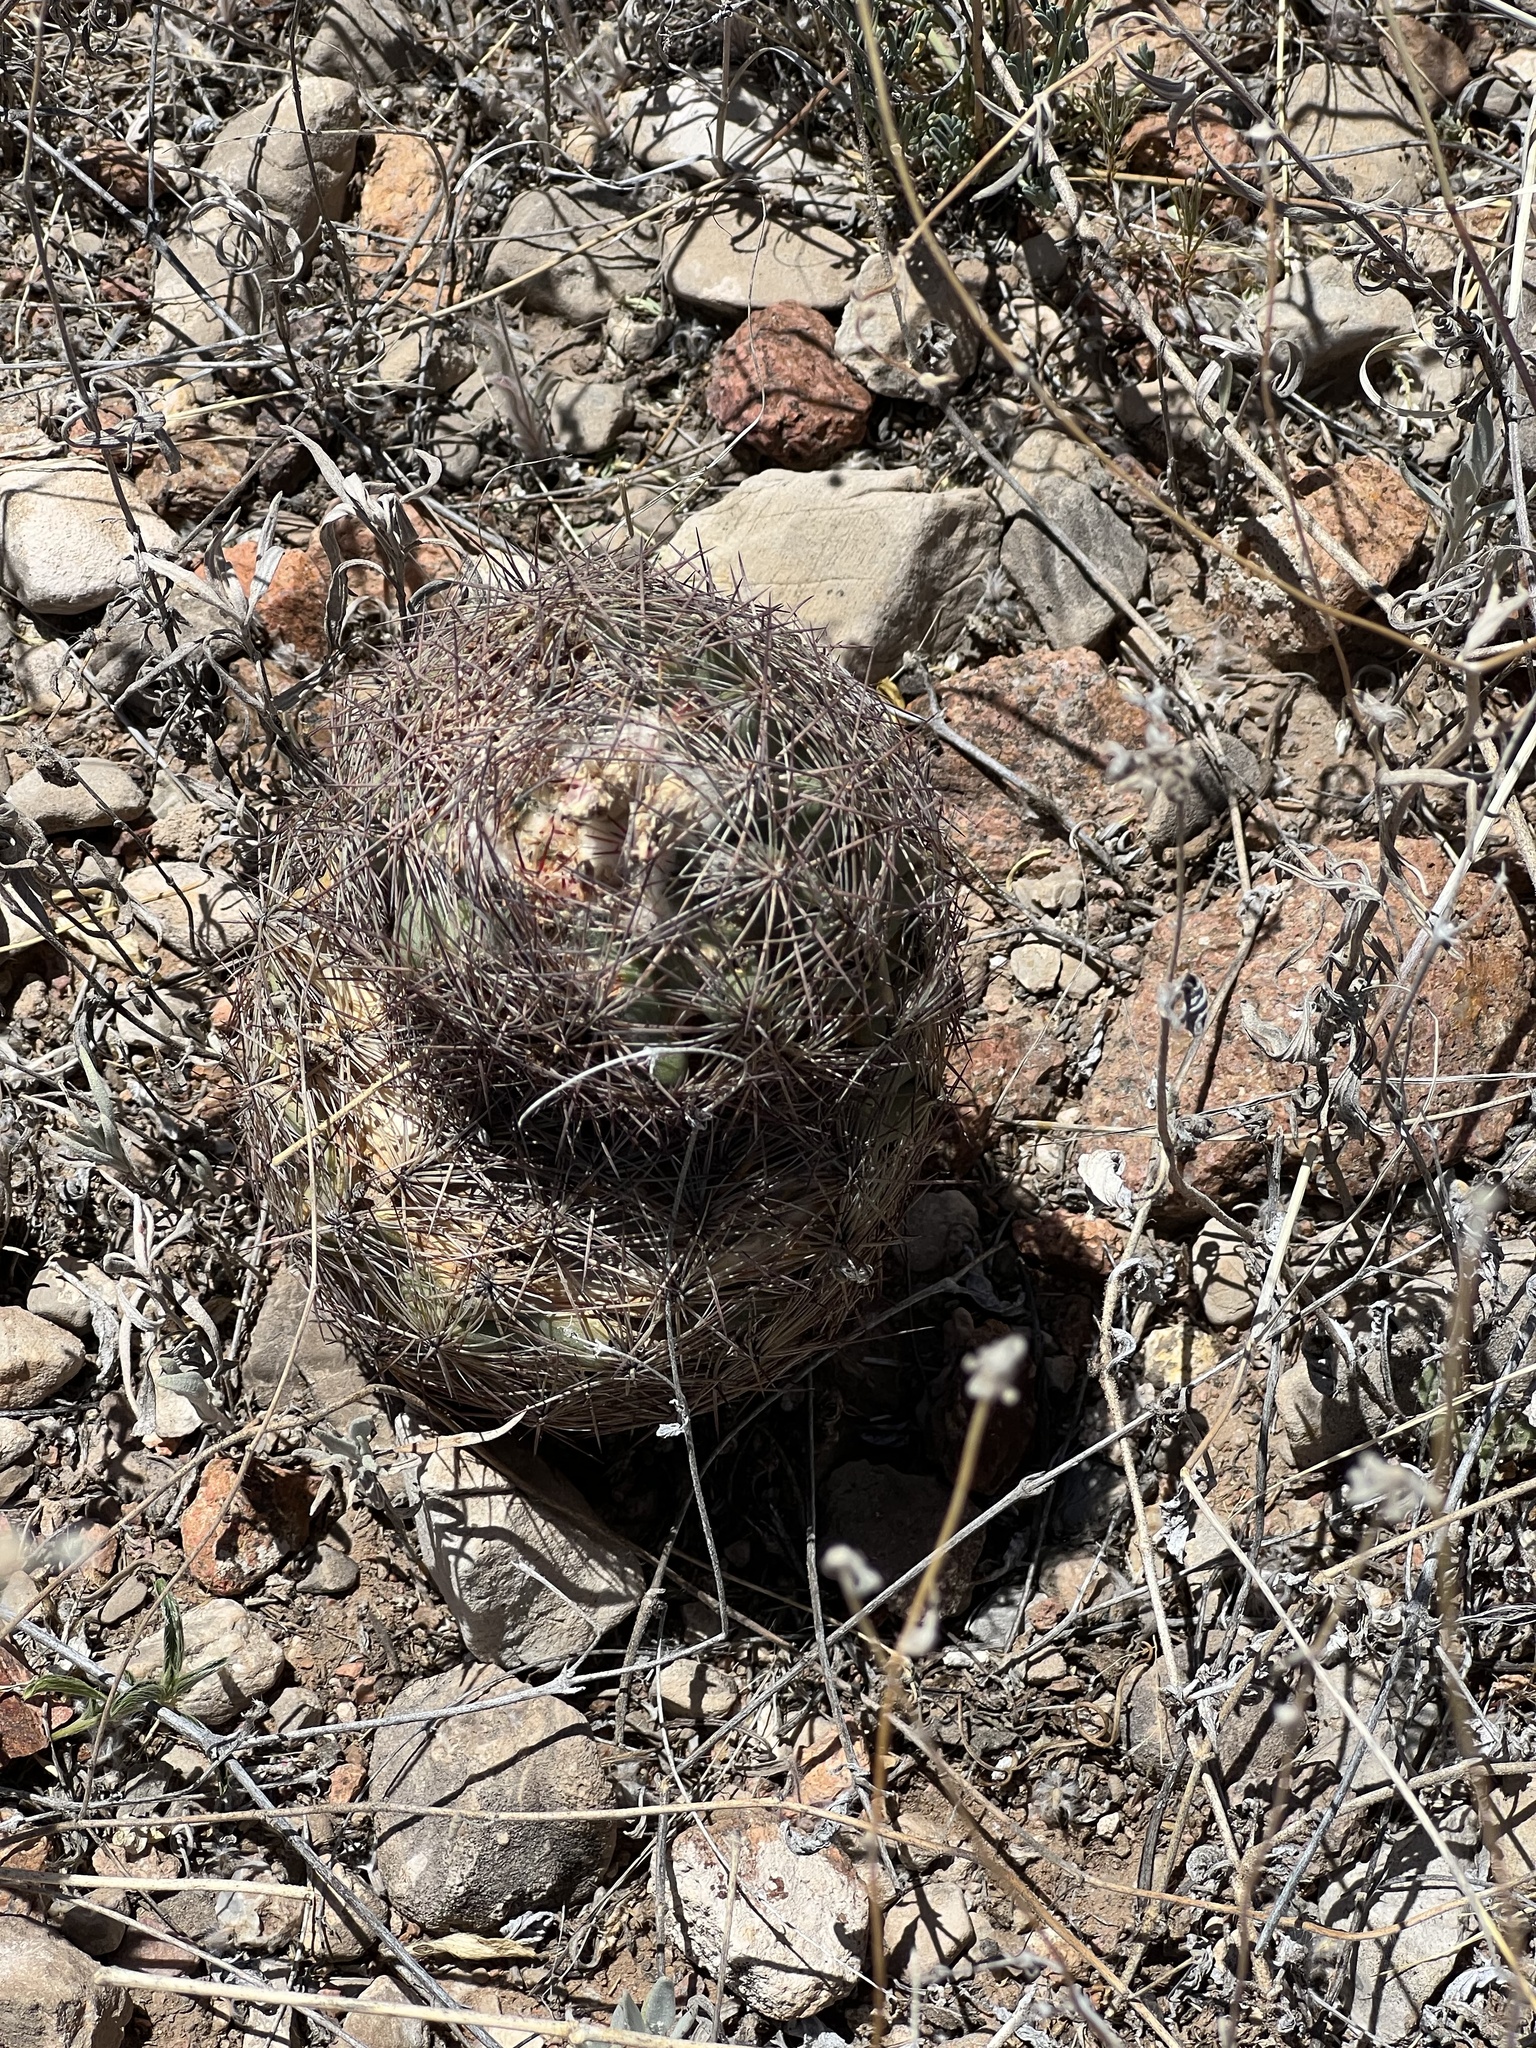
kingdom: Plantae
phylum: Tracheophyta
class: Magnoliopsida
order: Caryophyllales
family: Cactaceae
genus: Sclerocactus
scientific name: Sclerocactus intertextus
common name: White fish-hook cactus
